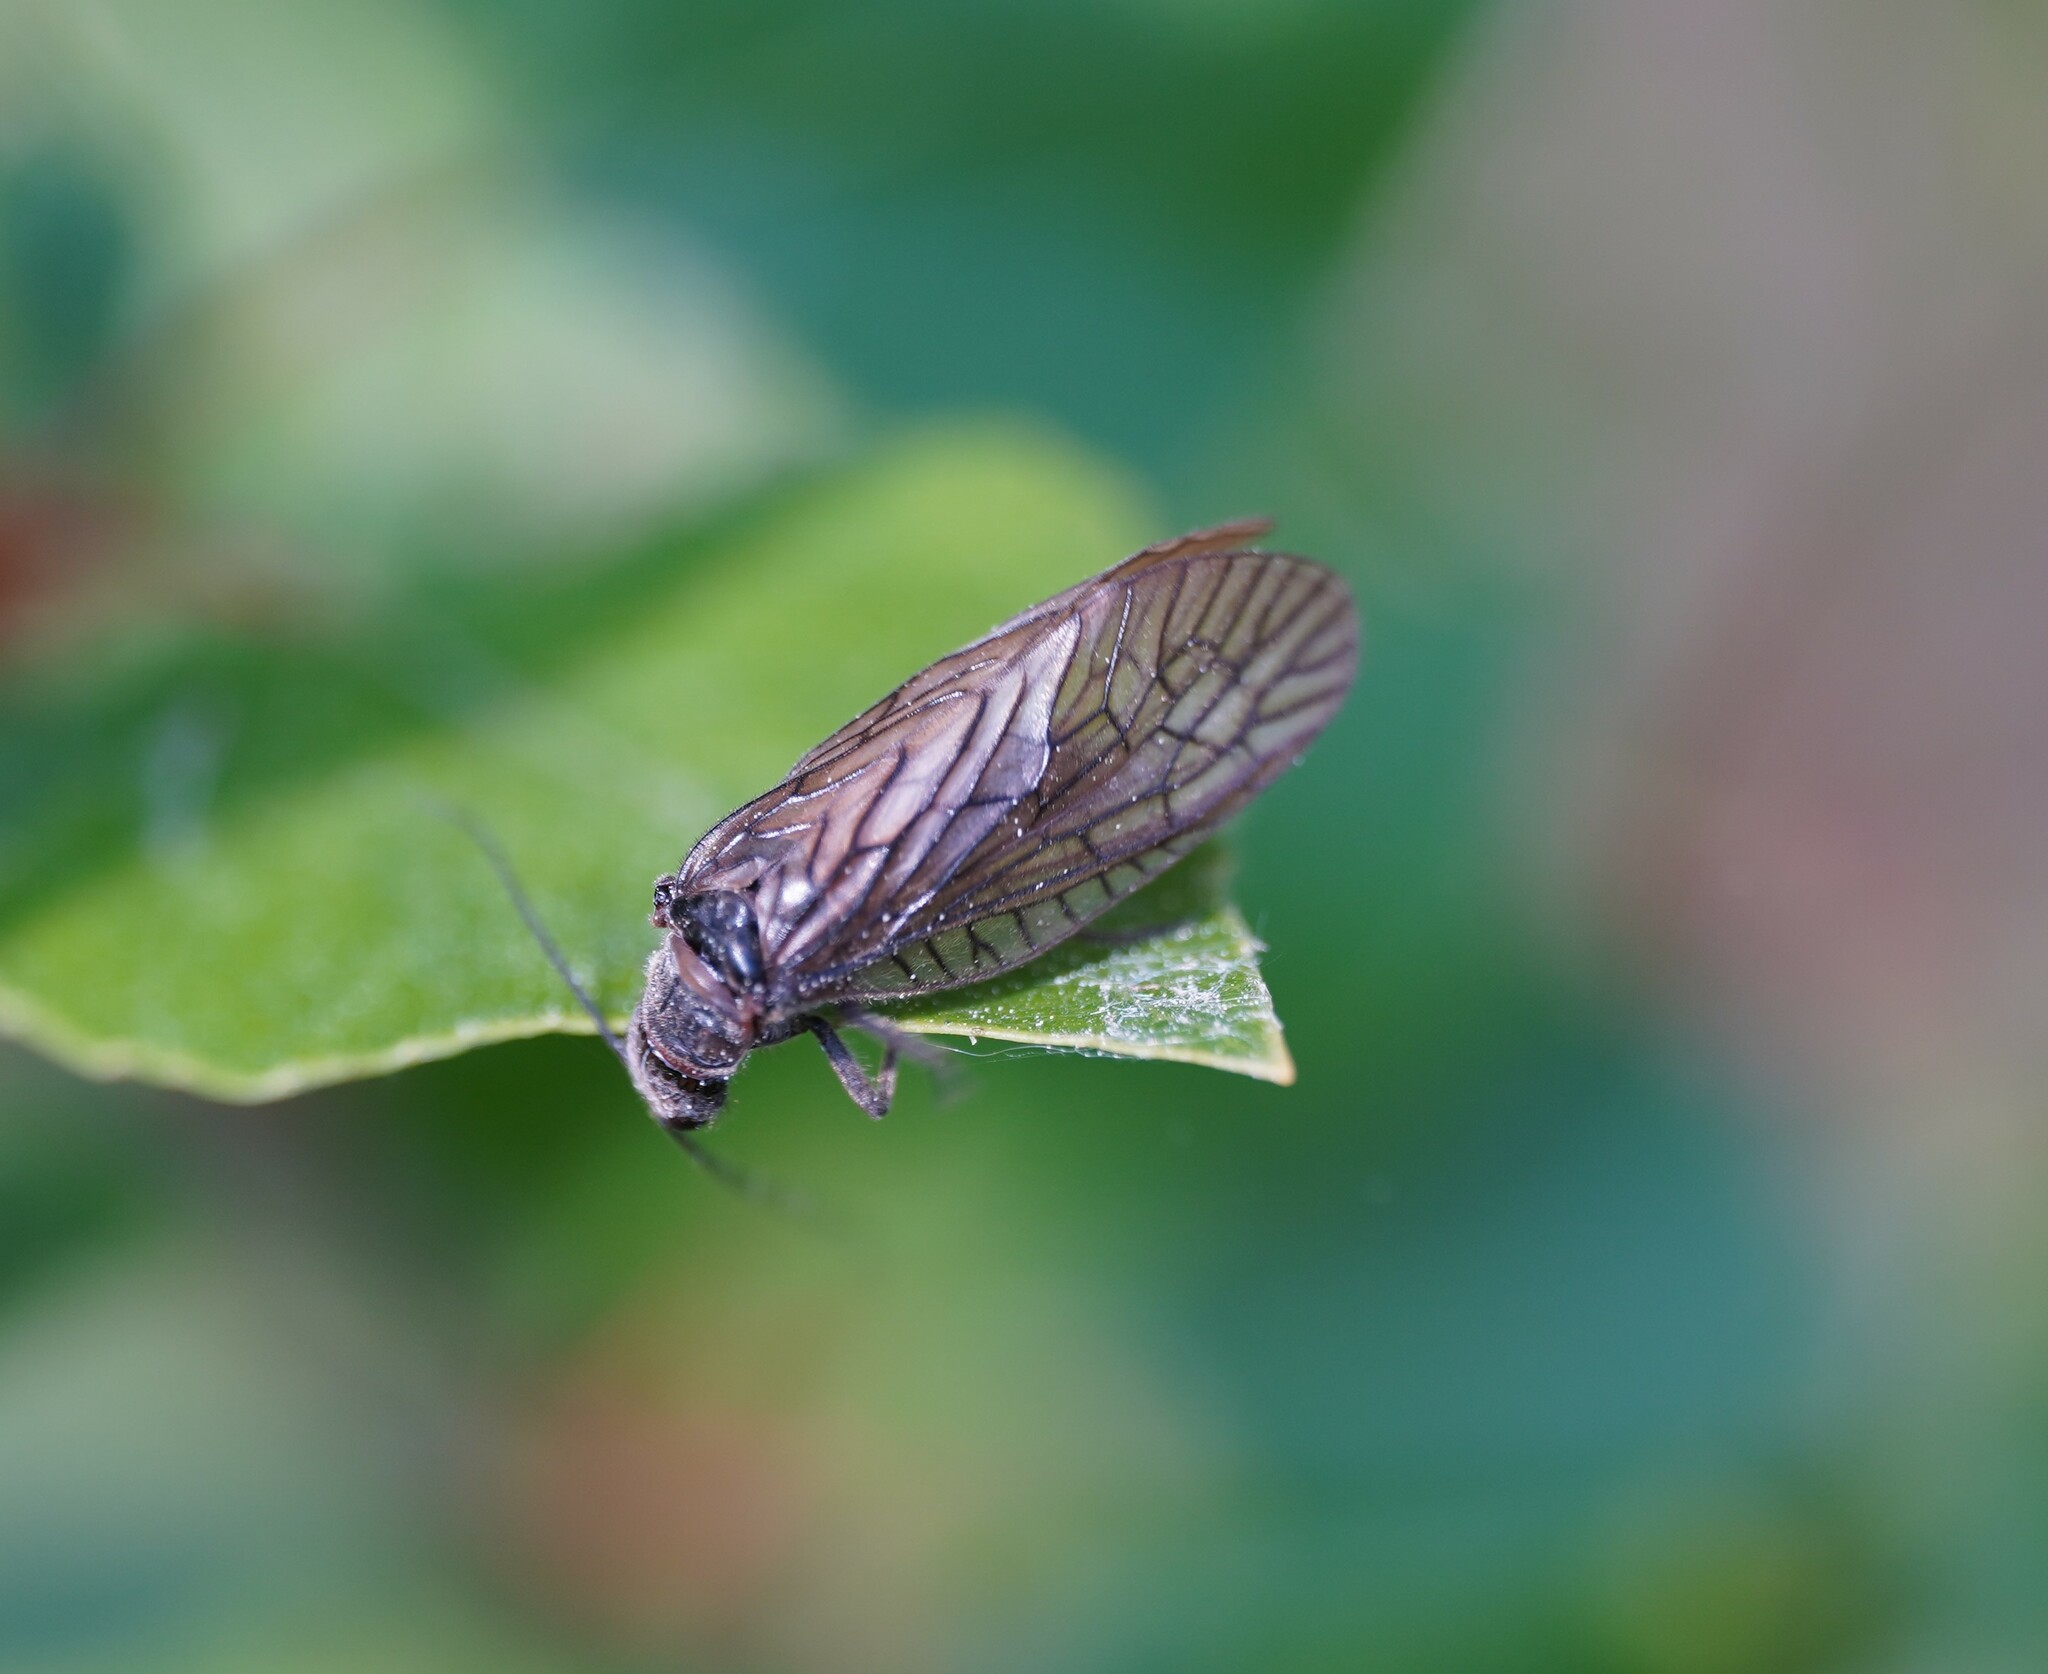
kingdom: Animalia
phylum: Arthropoda
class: Insecta
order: Megaloptera
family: Sialidae
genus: Sialis
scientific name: Sialis
